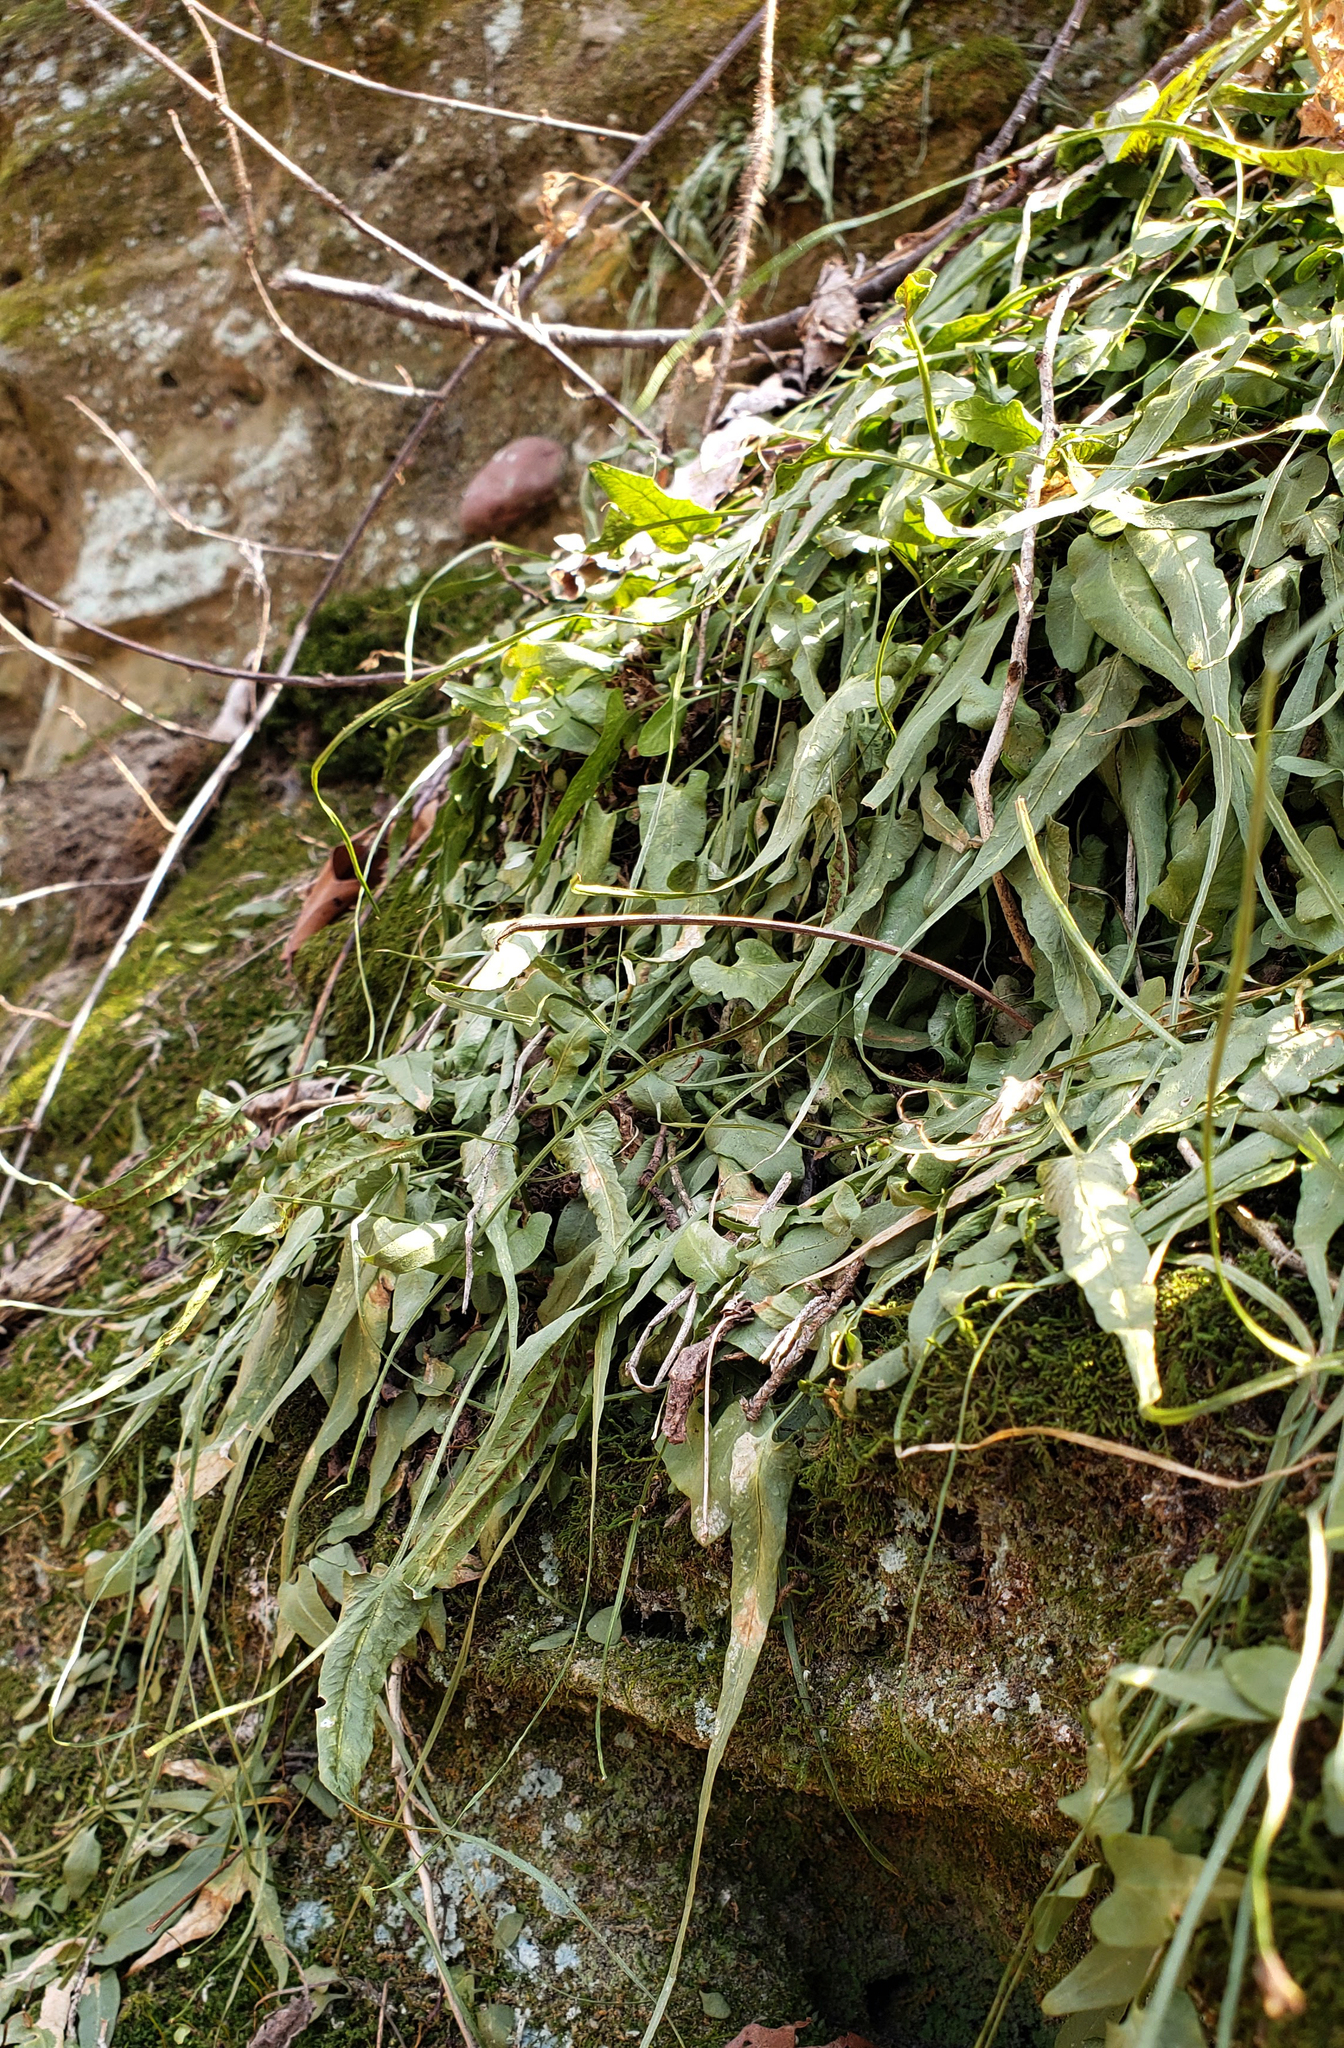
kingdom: Plantae
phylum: Tracheophyta
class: Polypodiopsida
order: Polypodiales
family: Aspleniaceae
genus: Asplenium
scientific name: Asplenium rhizophyllum
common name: Walking fern
